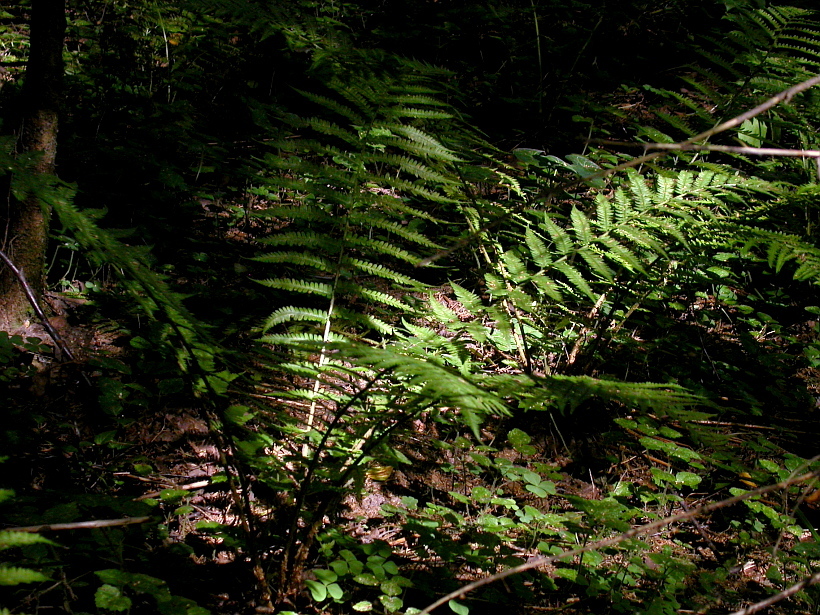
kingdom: Plantae
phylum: Tracheophyta
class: Polypodiopsida
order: Polypodiales
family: Dryopteridaceae
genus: Dryopteris
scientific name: Dryopteris filix-mas
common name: Male fern
